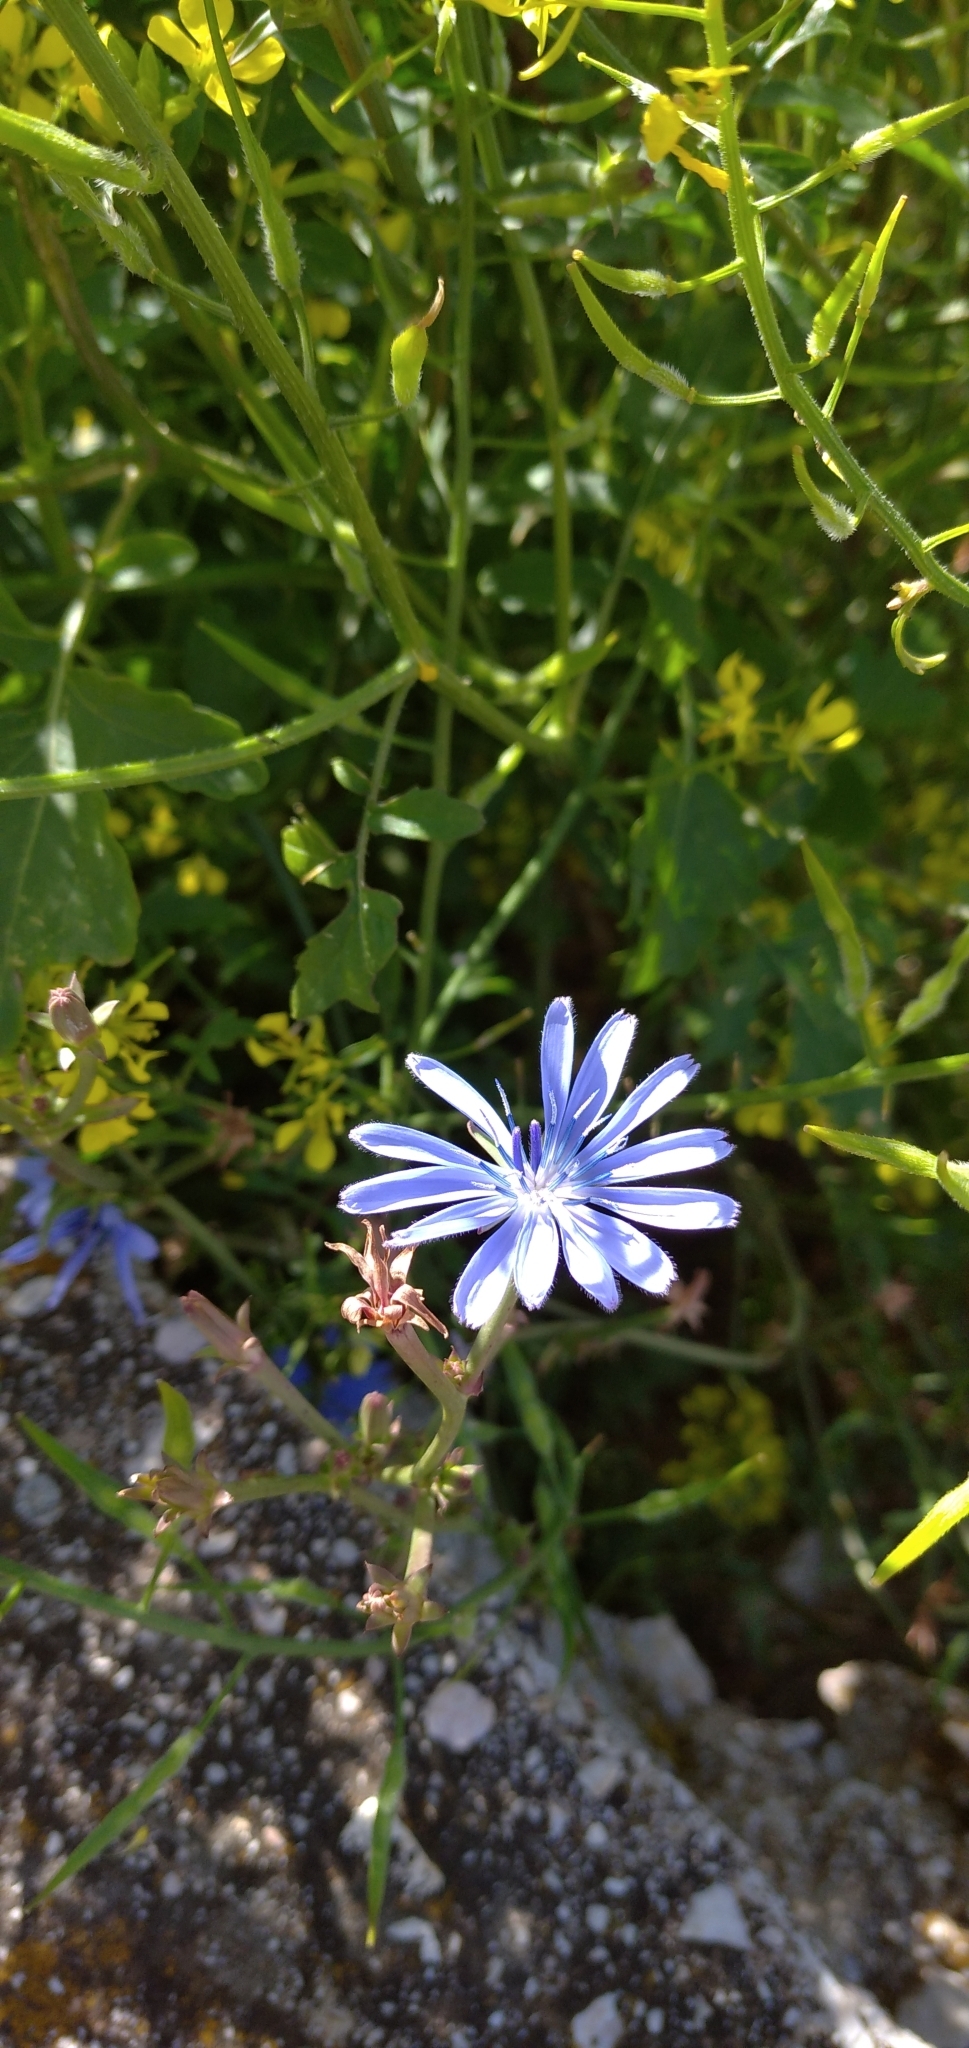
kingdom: Plantae
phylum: Tracheophyta
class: Magnoliopsida
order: Asterales
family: Asteraceae
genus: Cichorium
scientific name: Cichorium intybus
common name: Chicory
